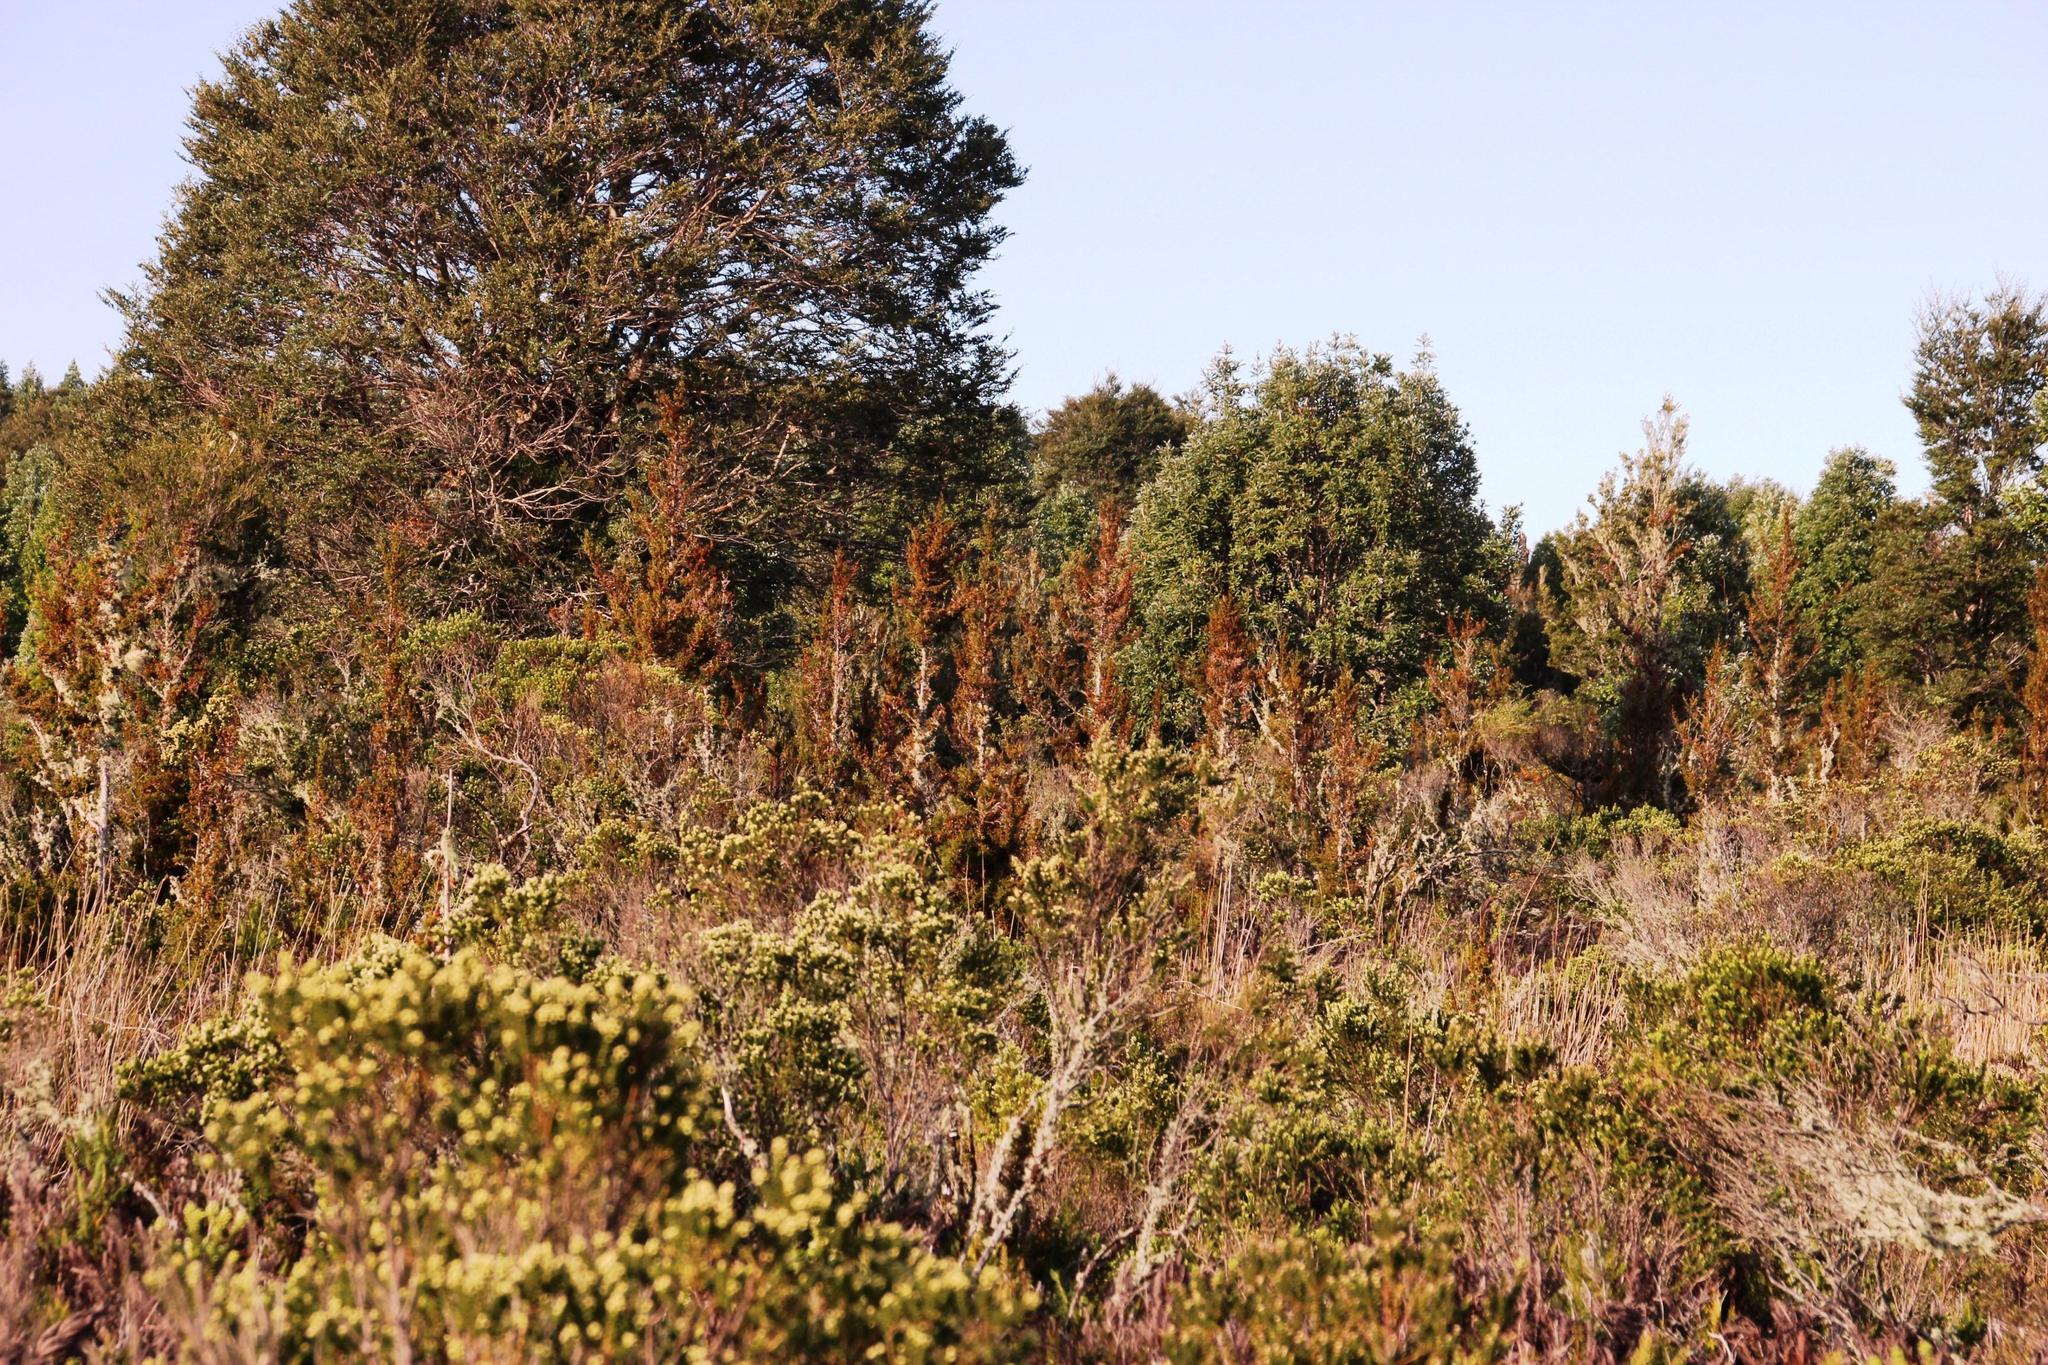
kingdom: Plantae
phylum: Tracheophyta
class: Pinopsida
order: Pinales
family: Cupressaceae
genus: Pilgerodendron
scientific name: Pilgerodendron uviferum
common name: Guaitecas cypress
